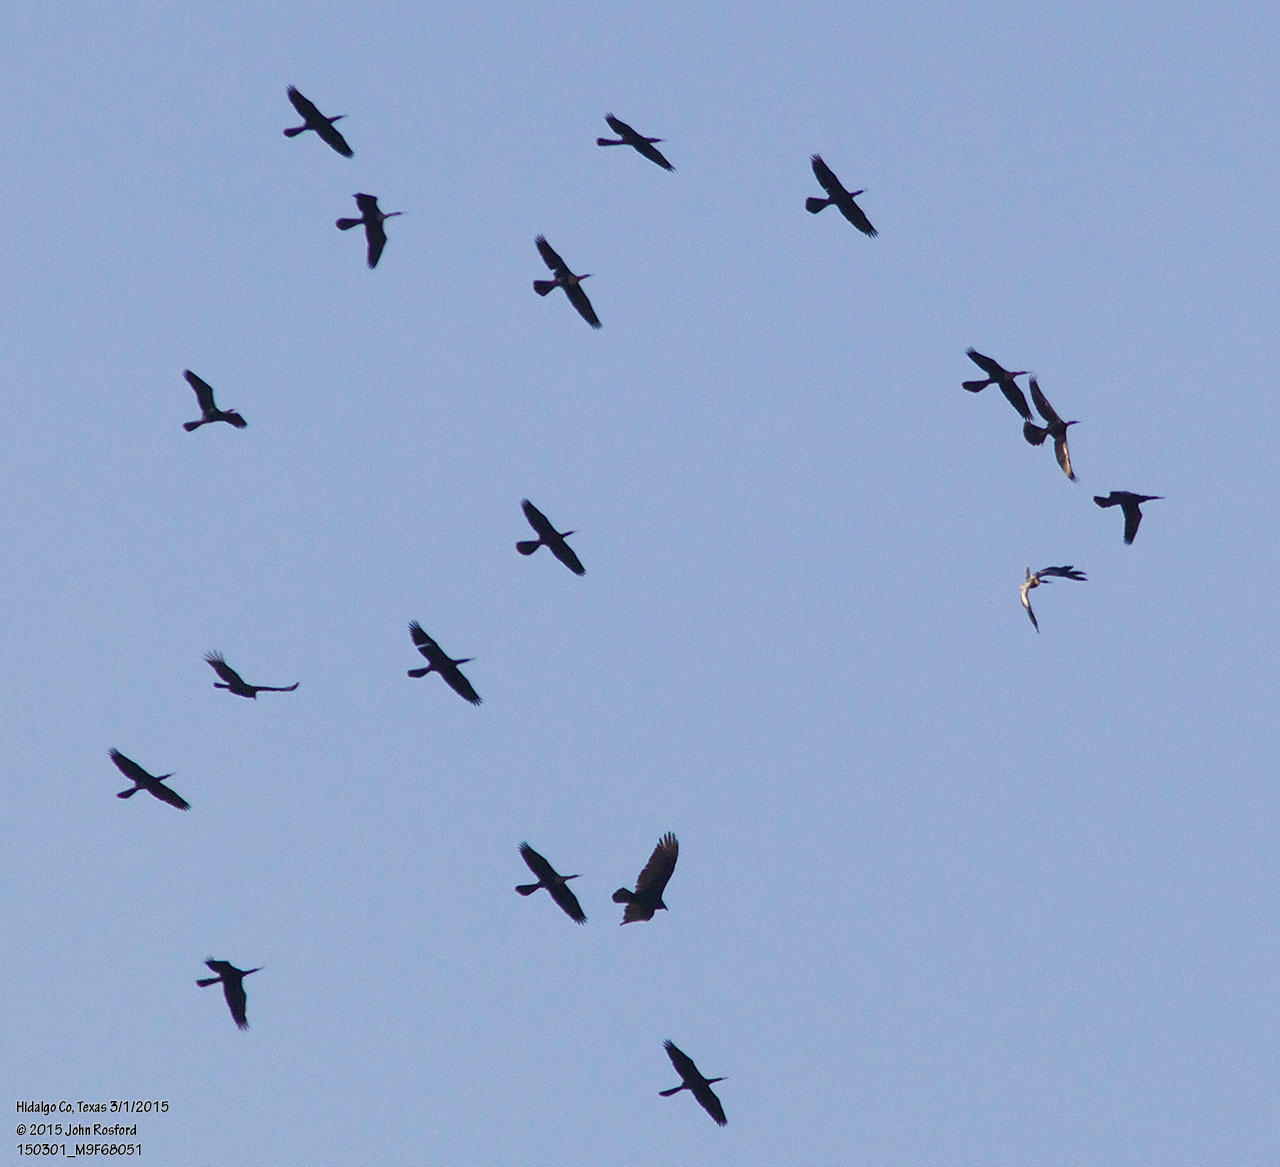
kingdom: Animalia
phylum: Chordata
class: Aves
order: Suliformes
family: Anhingidae
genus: Anhinga
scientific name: Anhinga anhinga
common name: Anhinga
